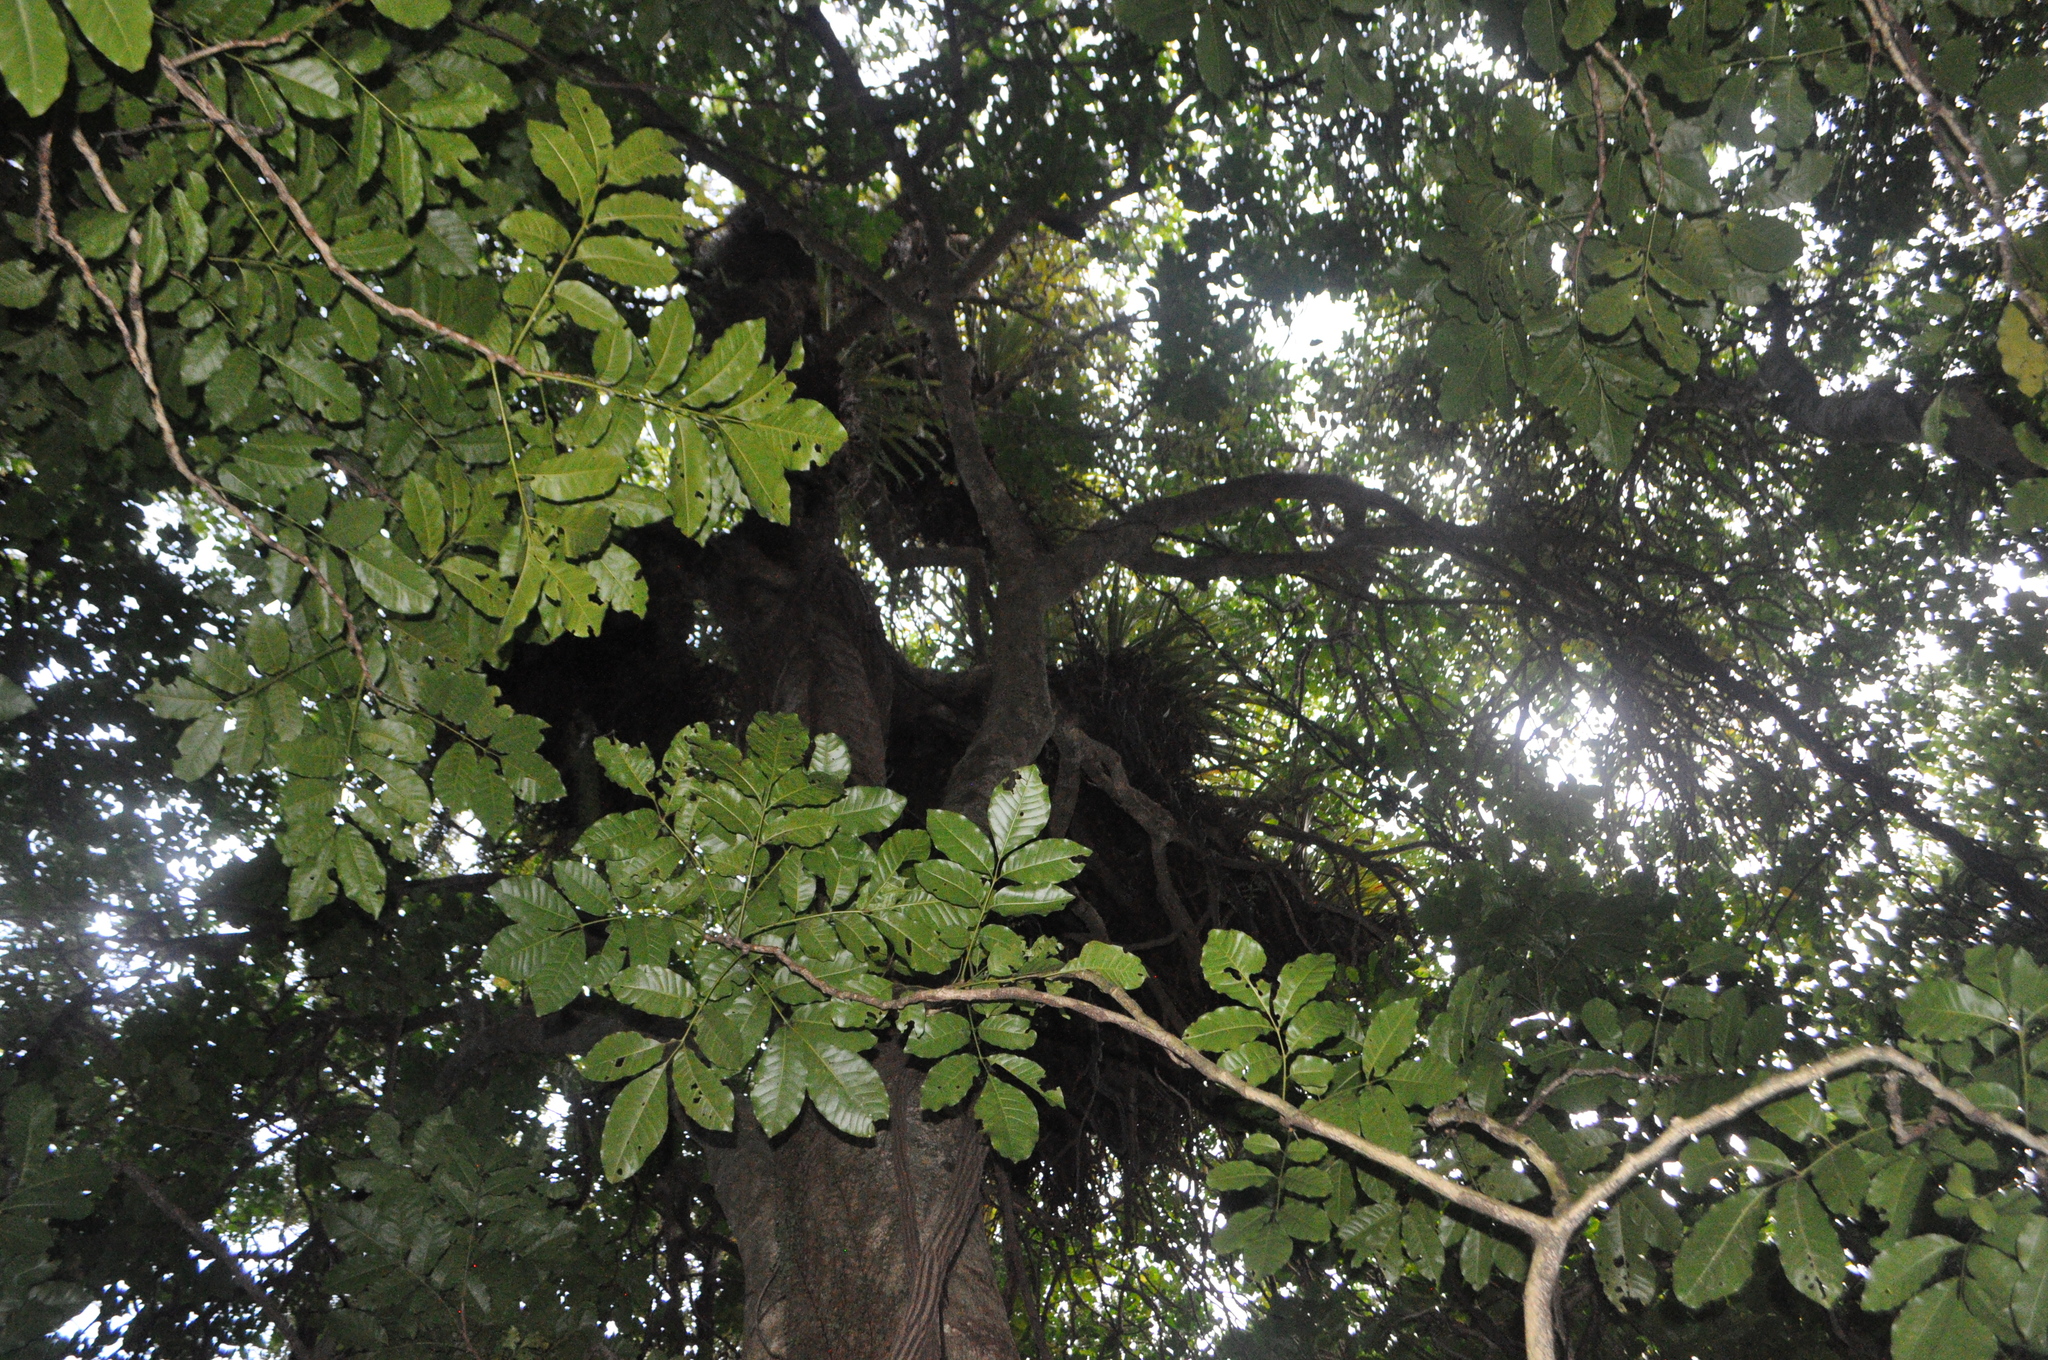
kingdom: Plantae
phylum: Tracheophyta
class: Magnoliopsida
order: Sapindales
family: Meliaceae
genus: Didymocheton
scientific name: Didymocheton spectabilis
